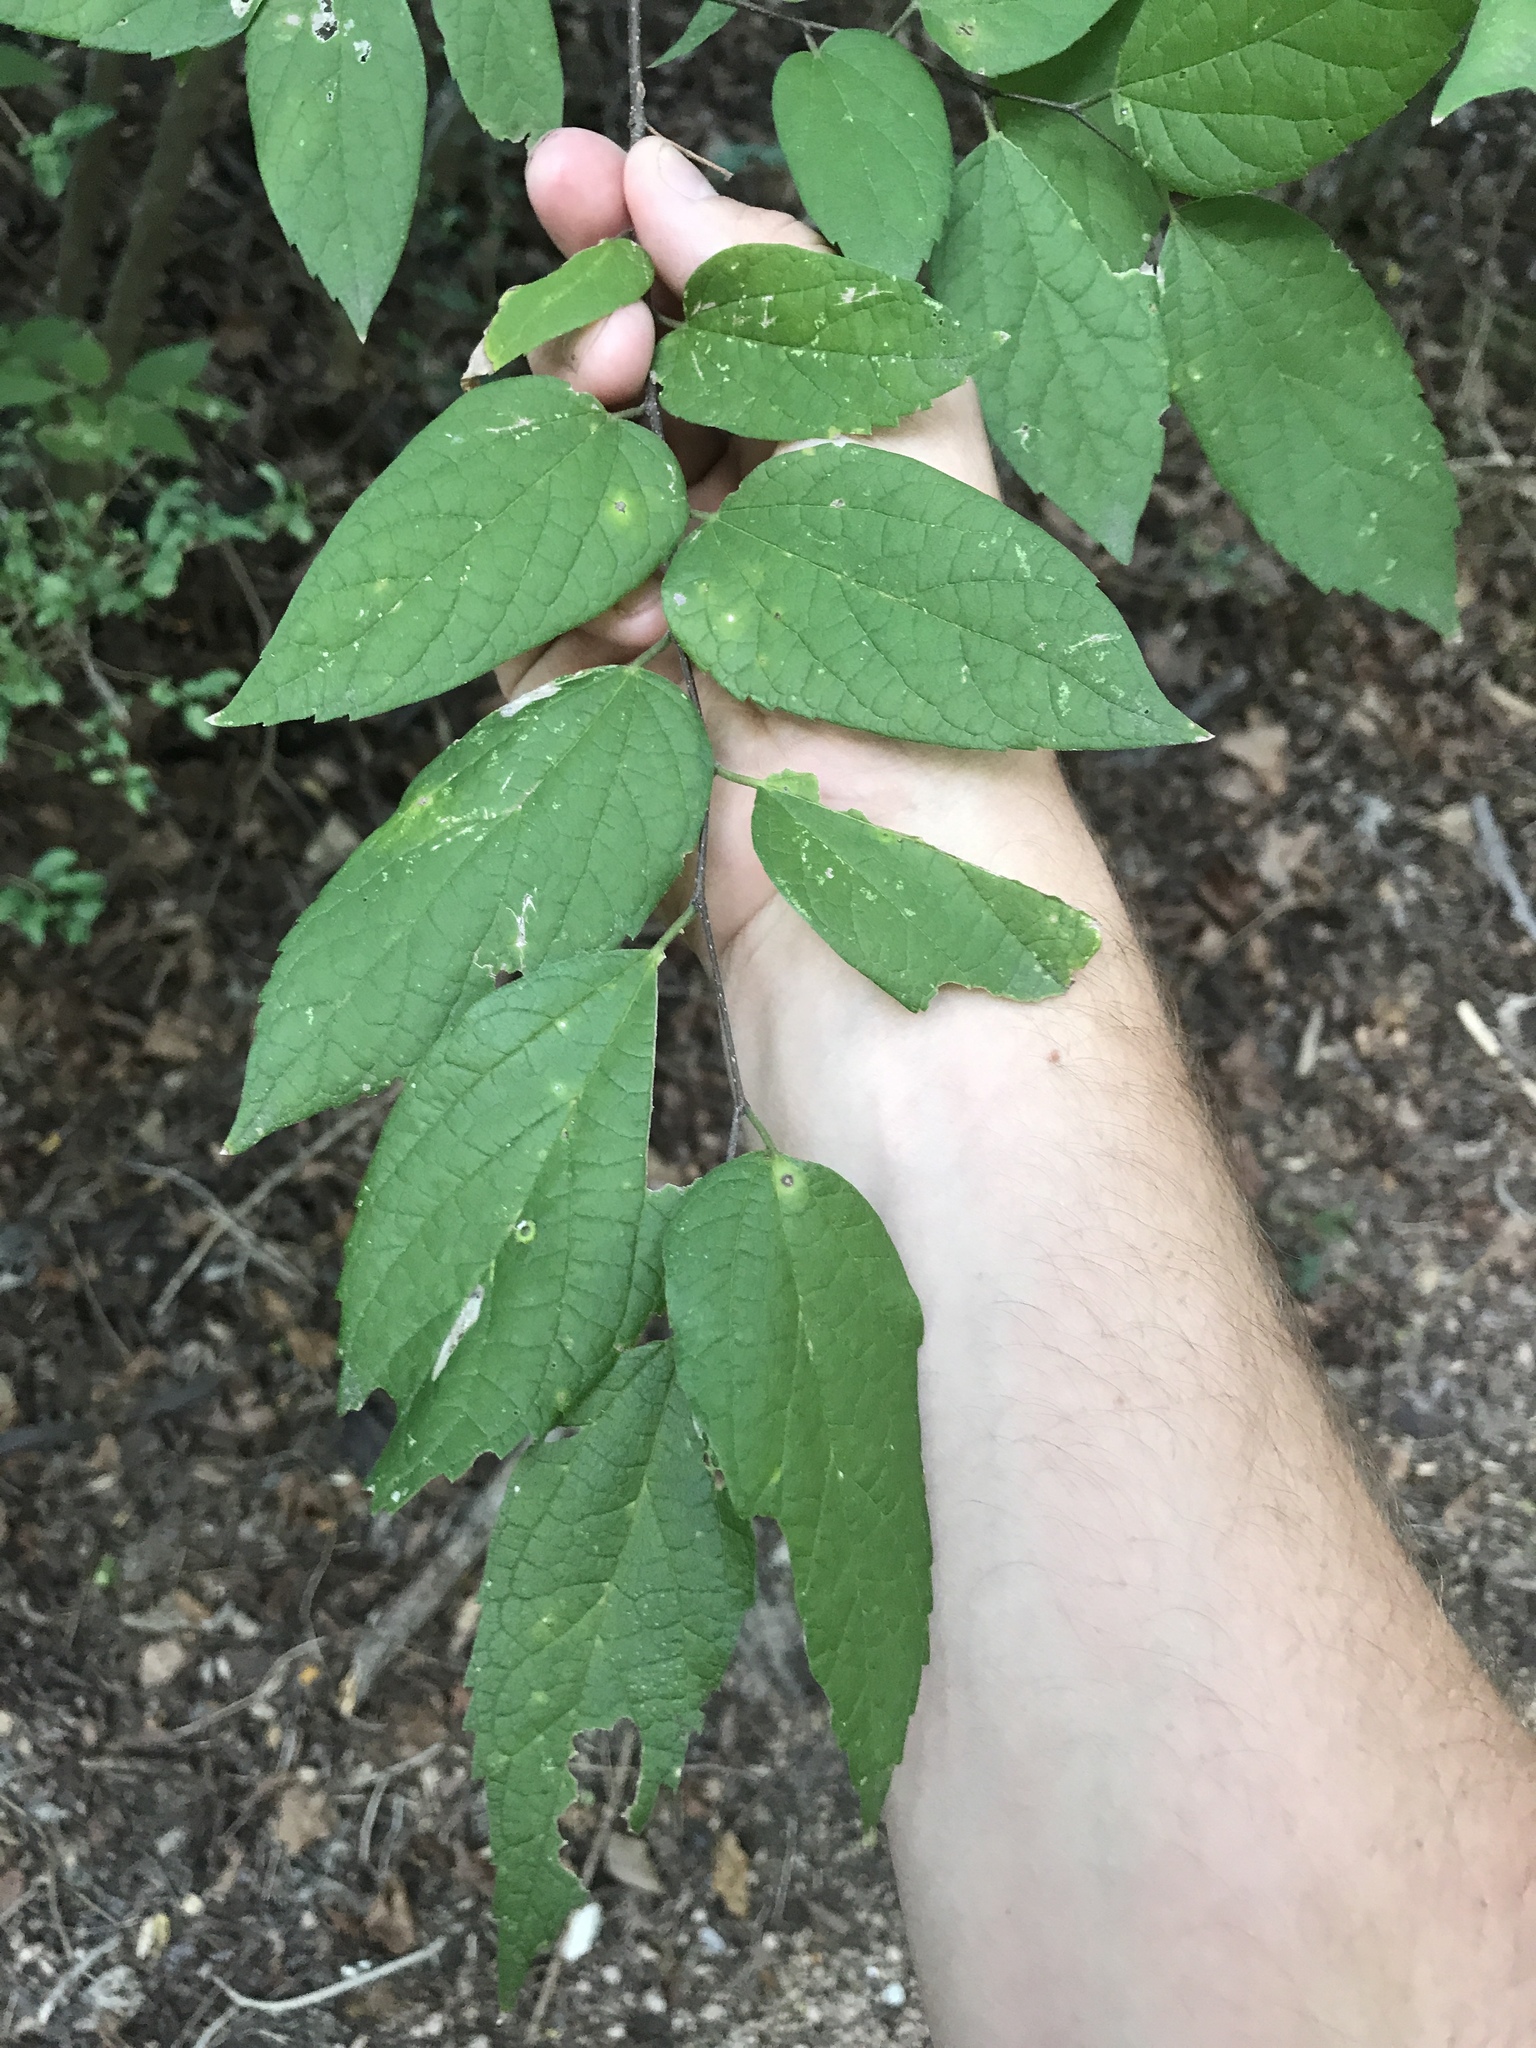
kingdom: Plantae
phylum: Tracheophyta
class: Magnoliopsida
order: Rosales
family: Cannabaceae
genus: Celtis
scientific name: Celtis laevigata
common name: Sugarberry
